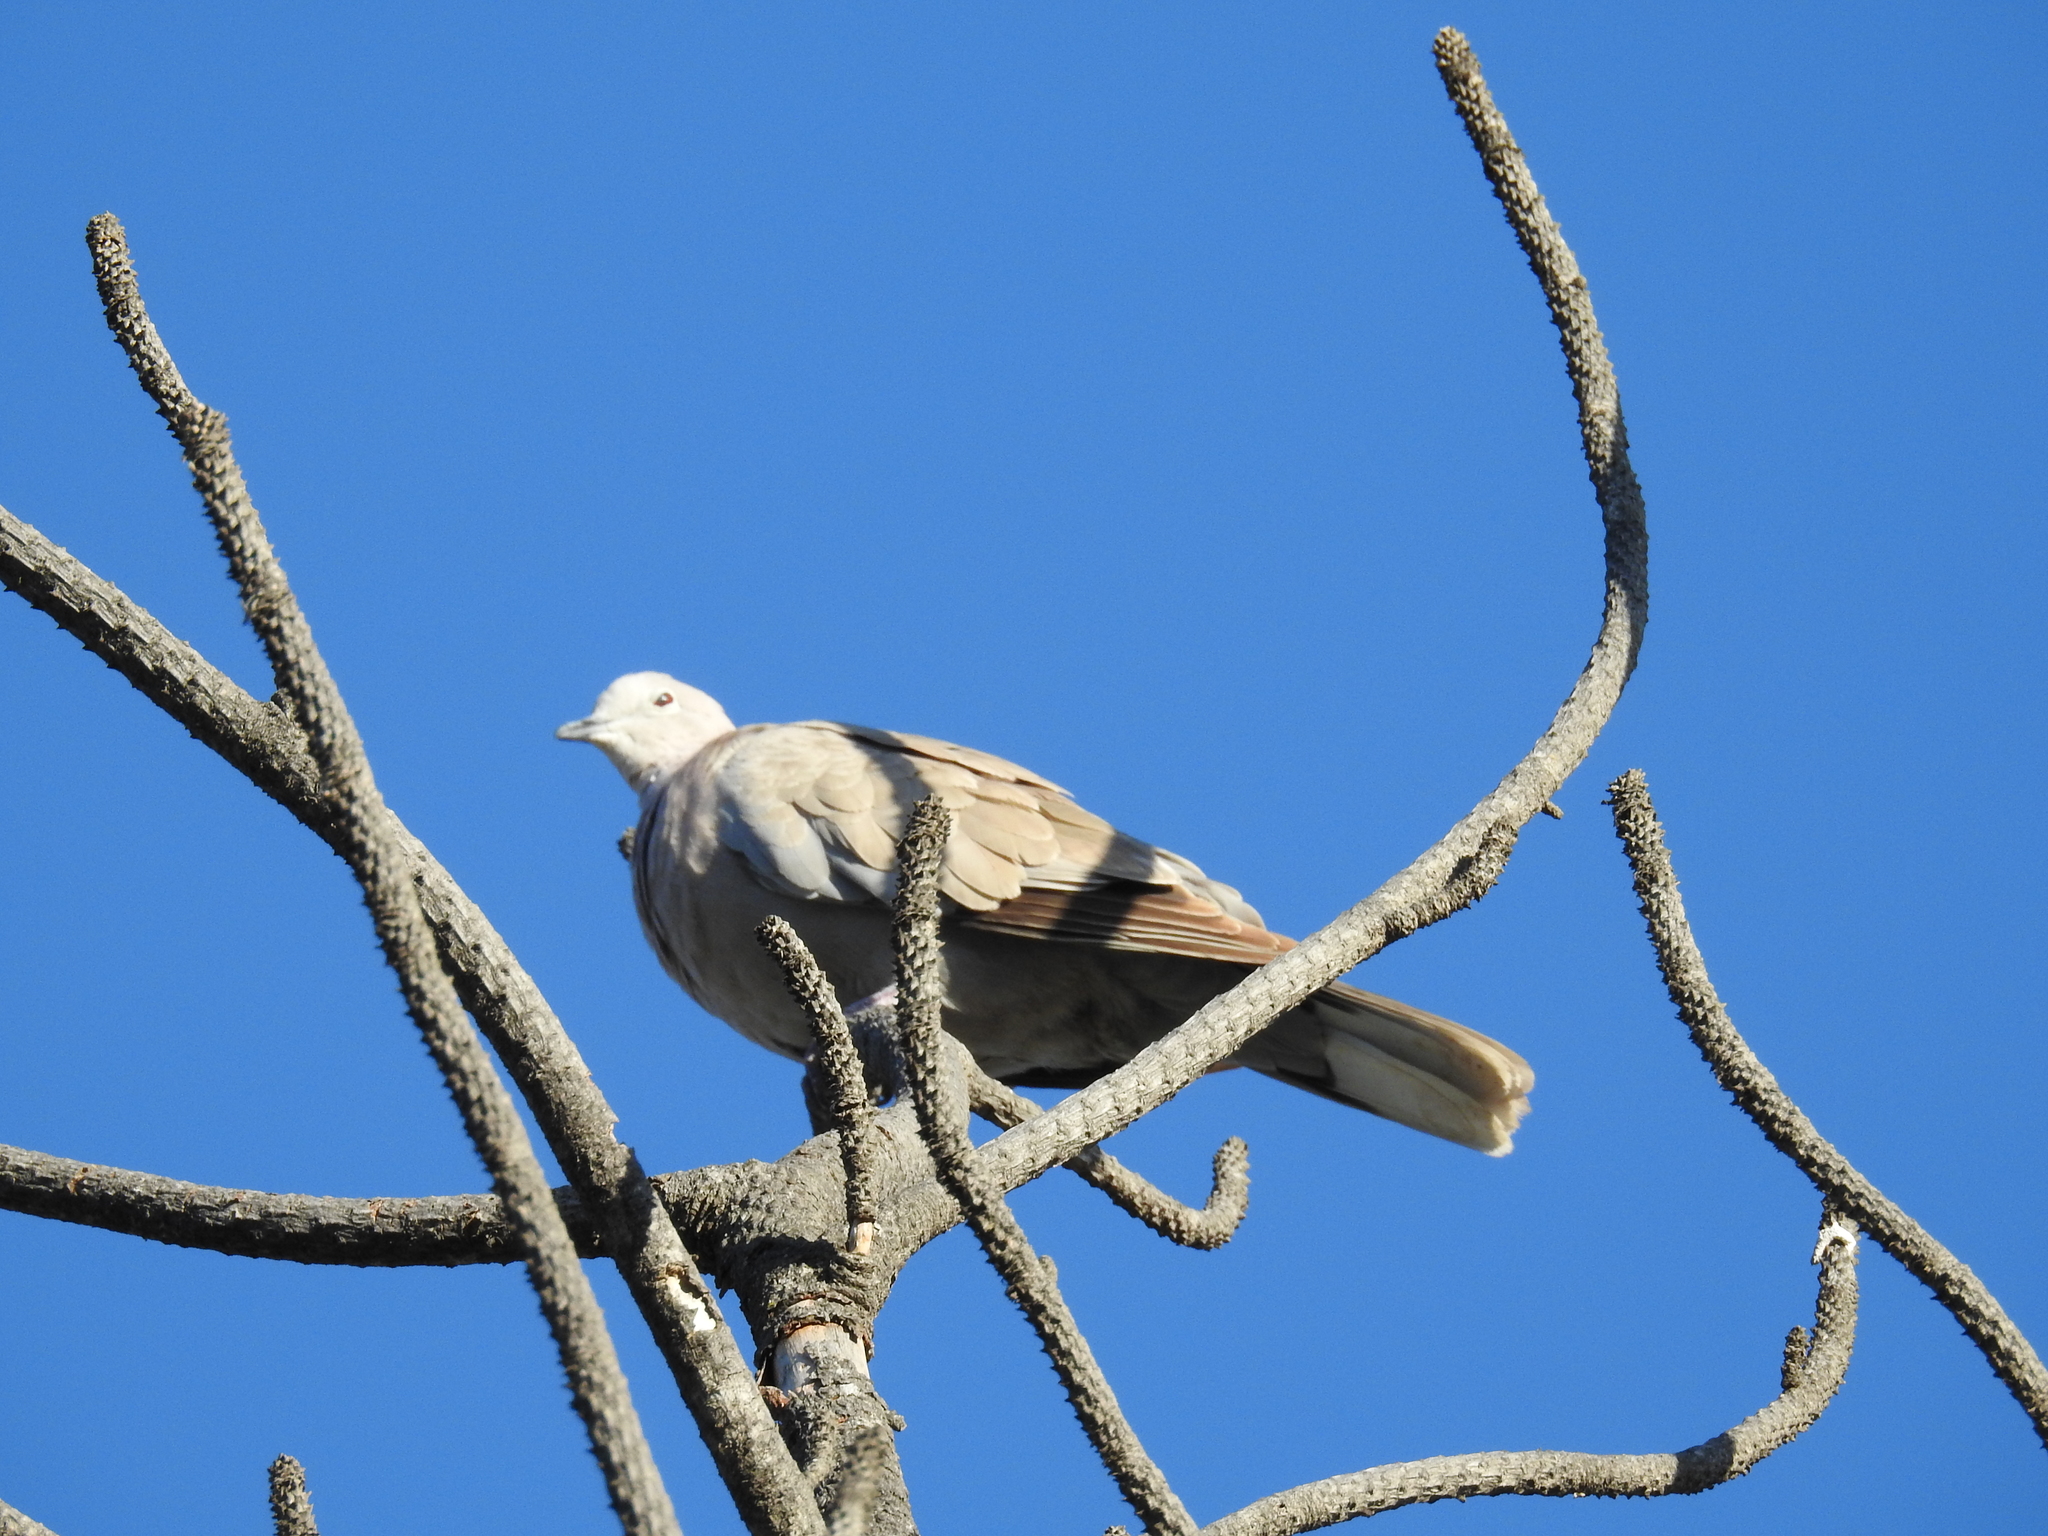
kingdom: Animalia
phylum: Chordata
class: Aves
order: Columbiformes
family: Columbidae
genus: Streptopelia
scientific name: Streptopelia decaocto
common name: Eurasian collared dove
